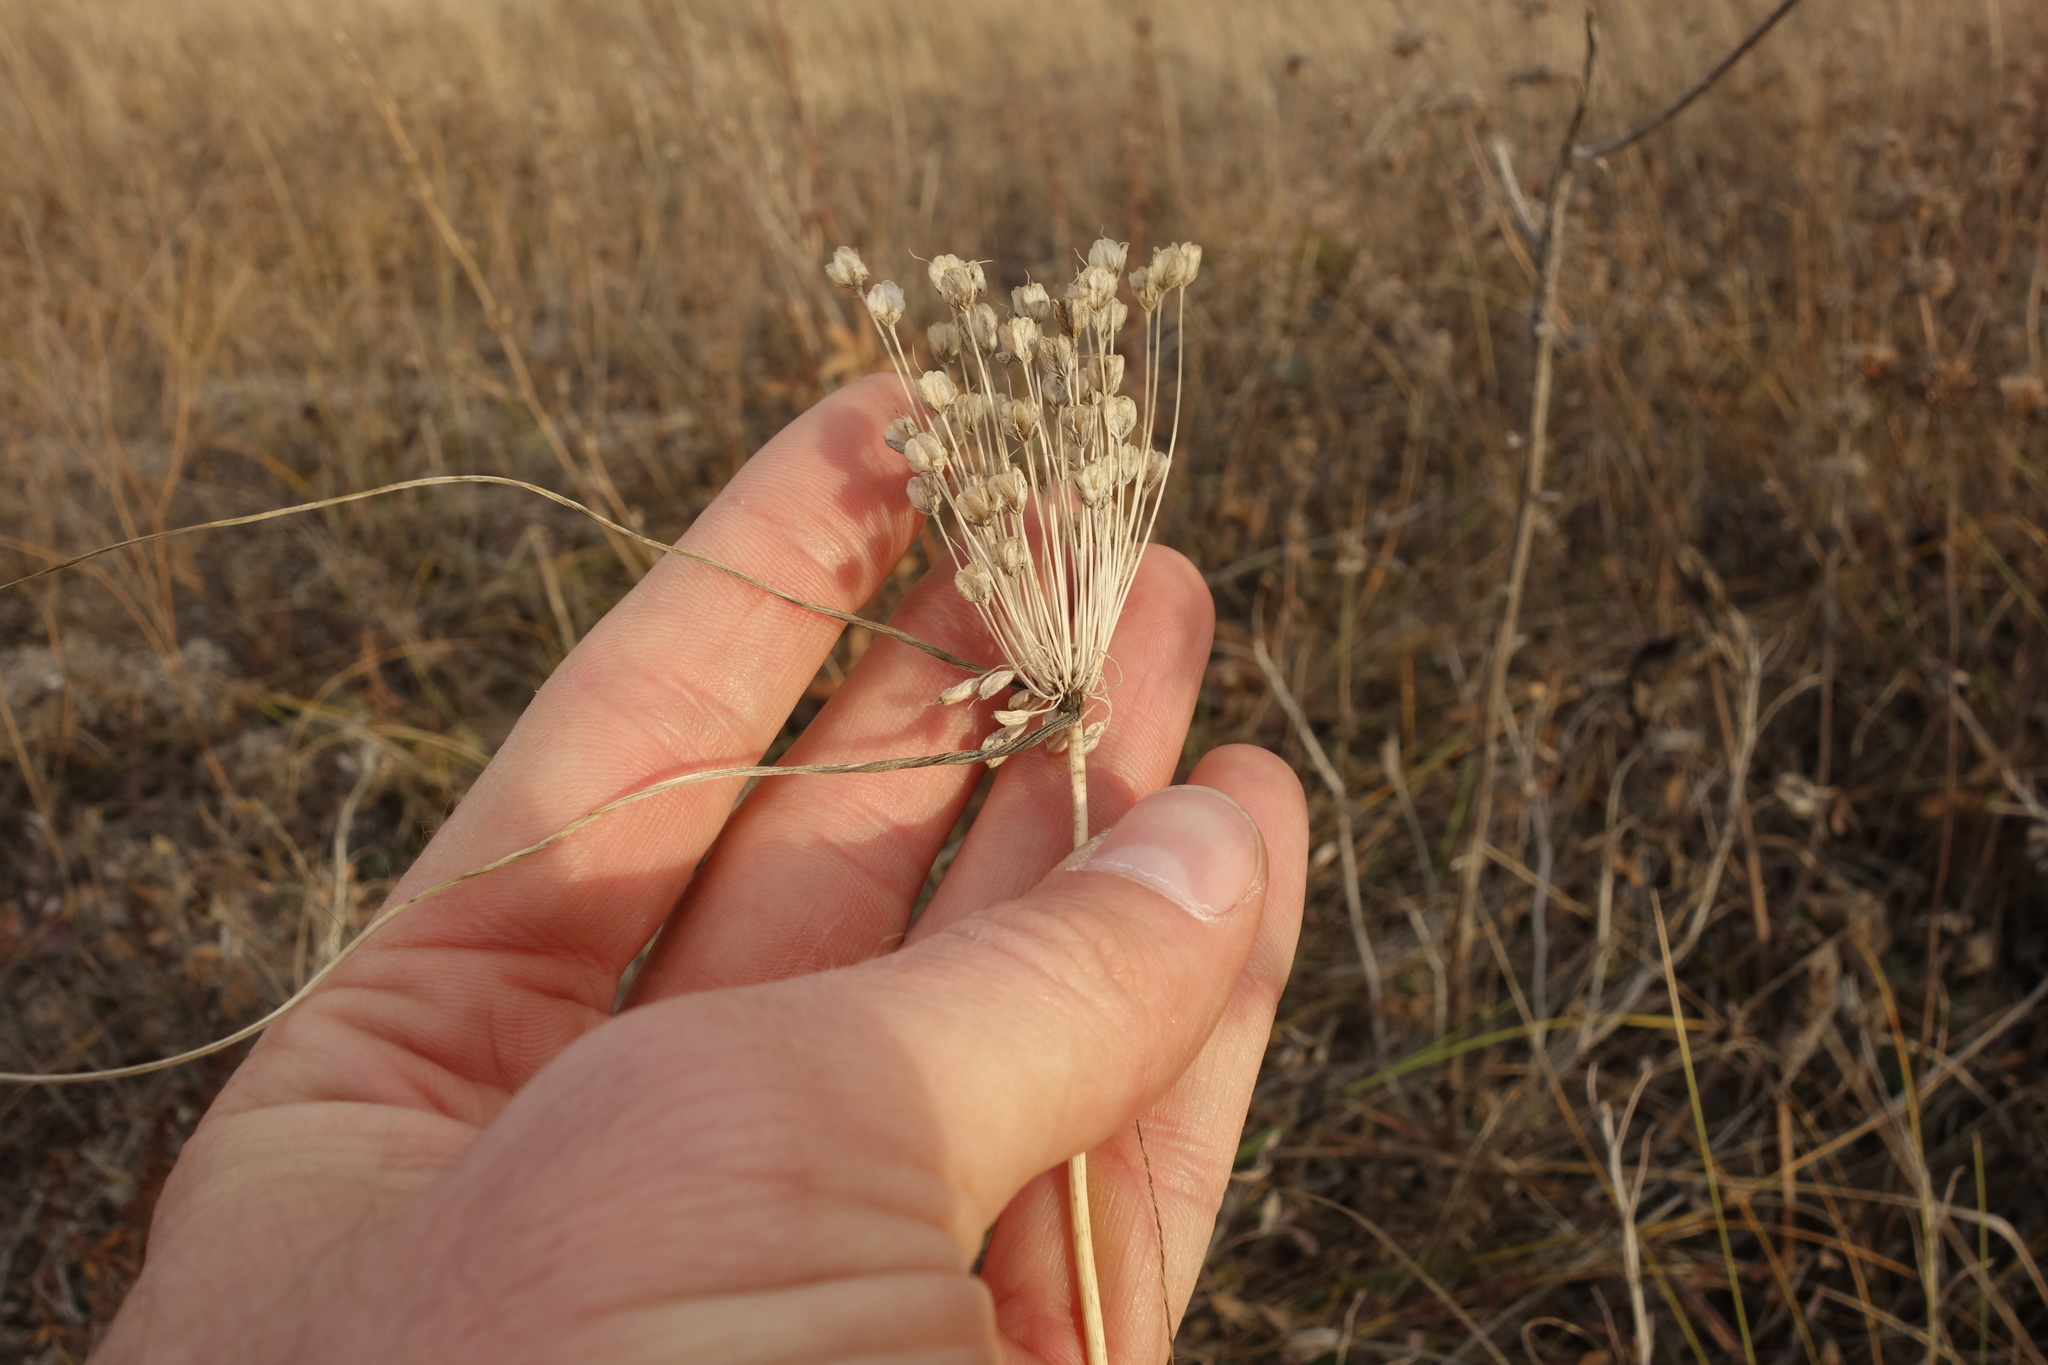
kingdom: Plantae
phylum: Tracheophyta
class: Liliopsida
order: Asparagales
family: Amaryllidaceae
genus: Allium
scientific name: Allium flavum
